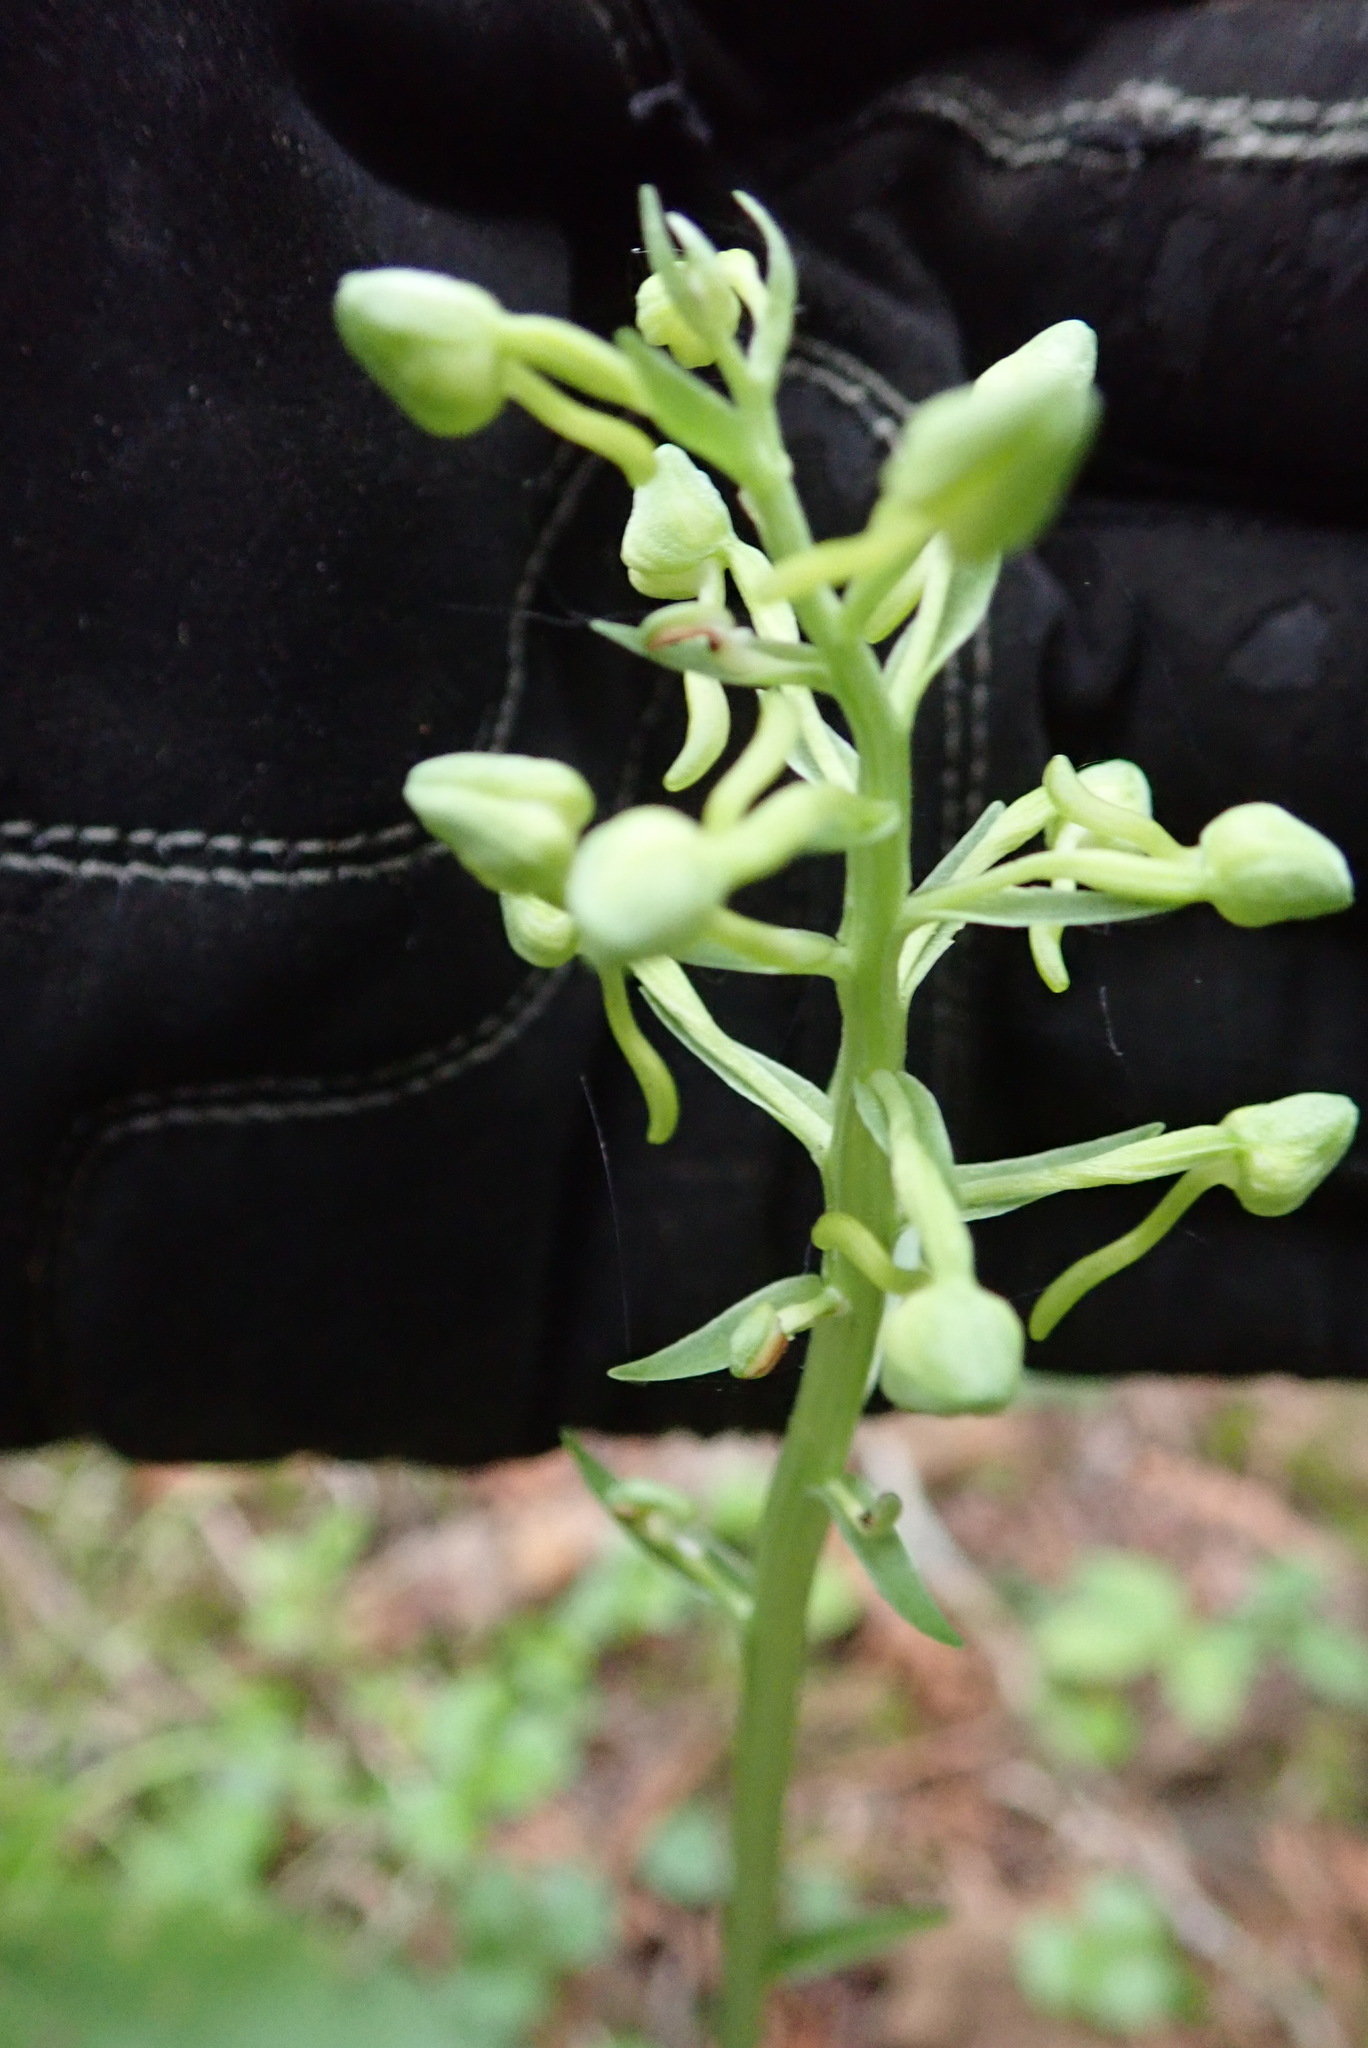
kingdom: Plantae
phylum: Tracheophyta
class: Liliopsida
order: Asparagales
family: Orchidaceae
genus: Platanthera
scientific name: Platanthera orbiculata
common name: Large round-leaved orchid
